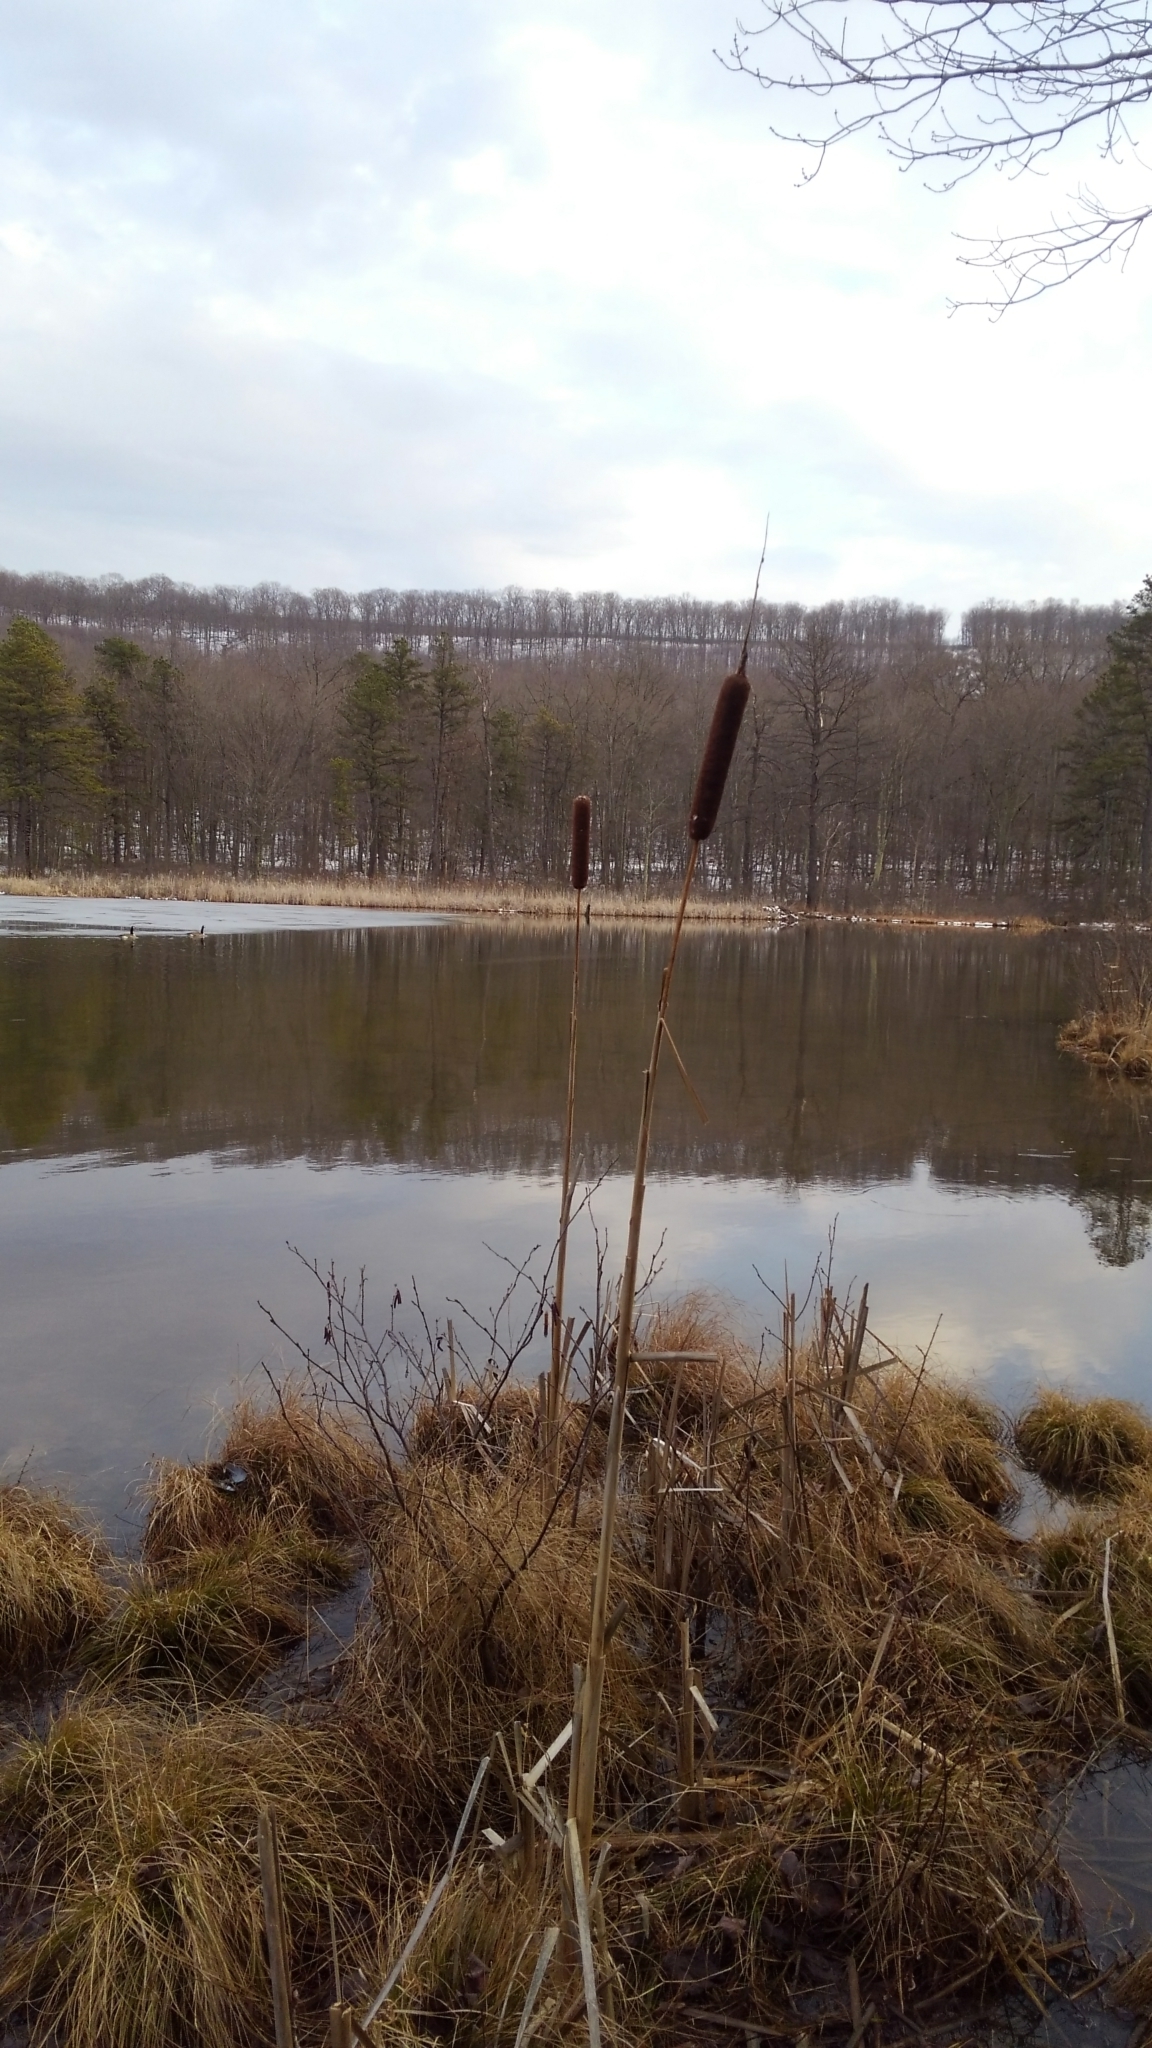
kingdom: Plantae
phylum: Tracheophyta
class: Liliopsida
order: Poales
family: Typhaceae
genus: Typha
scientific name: Typha latifolia
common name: Broadleaf cattail
